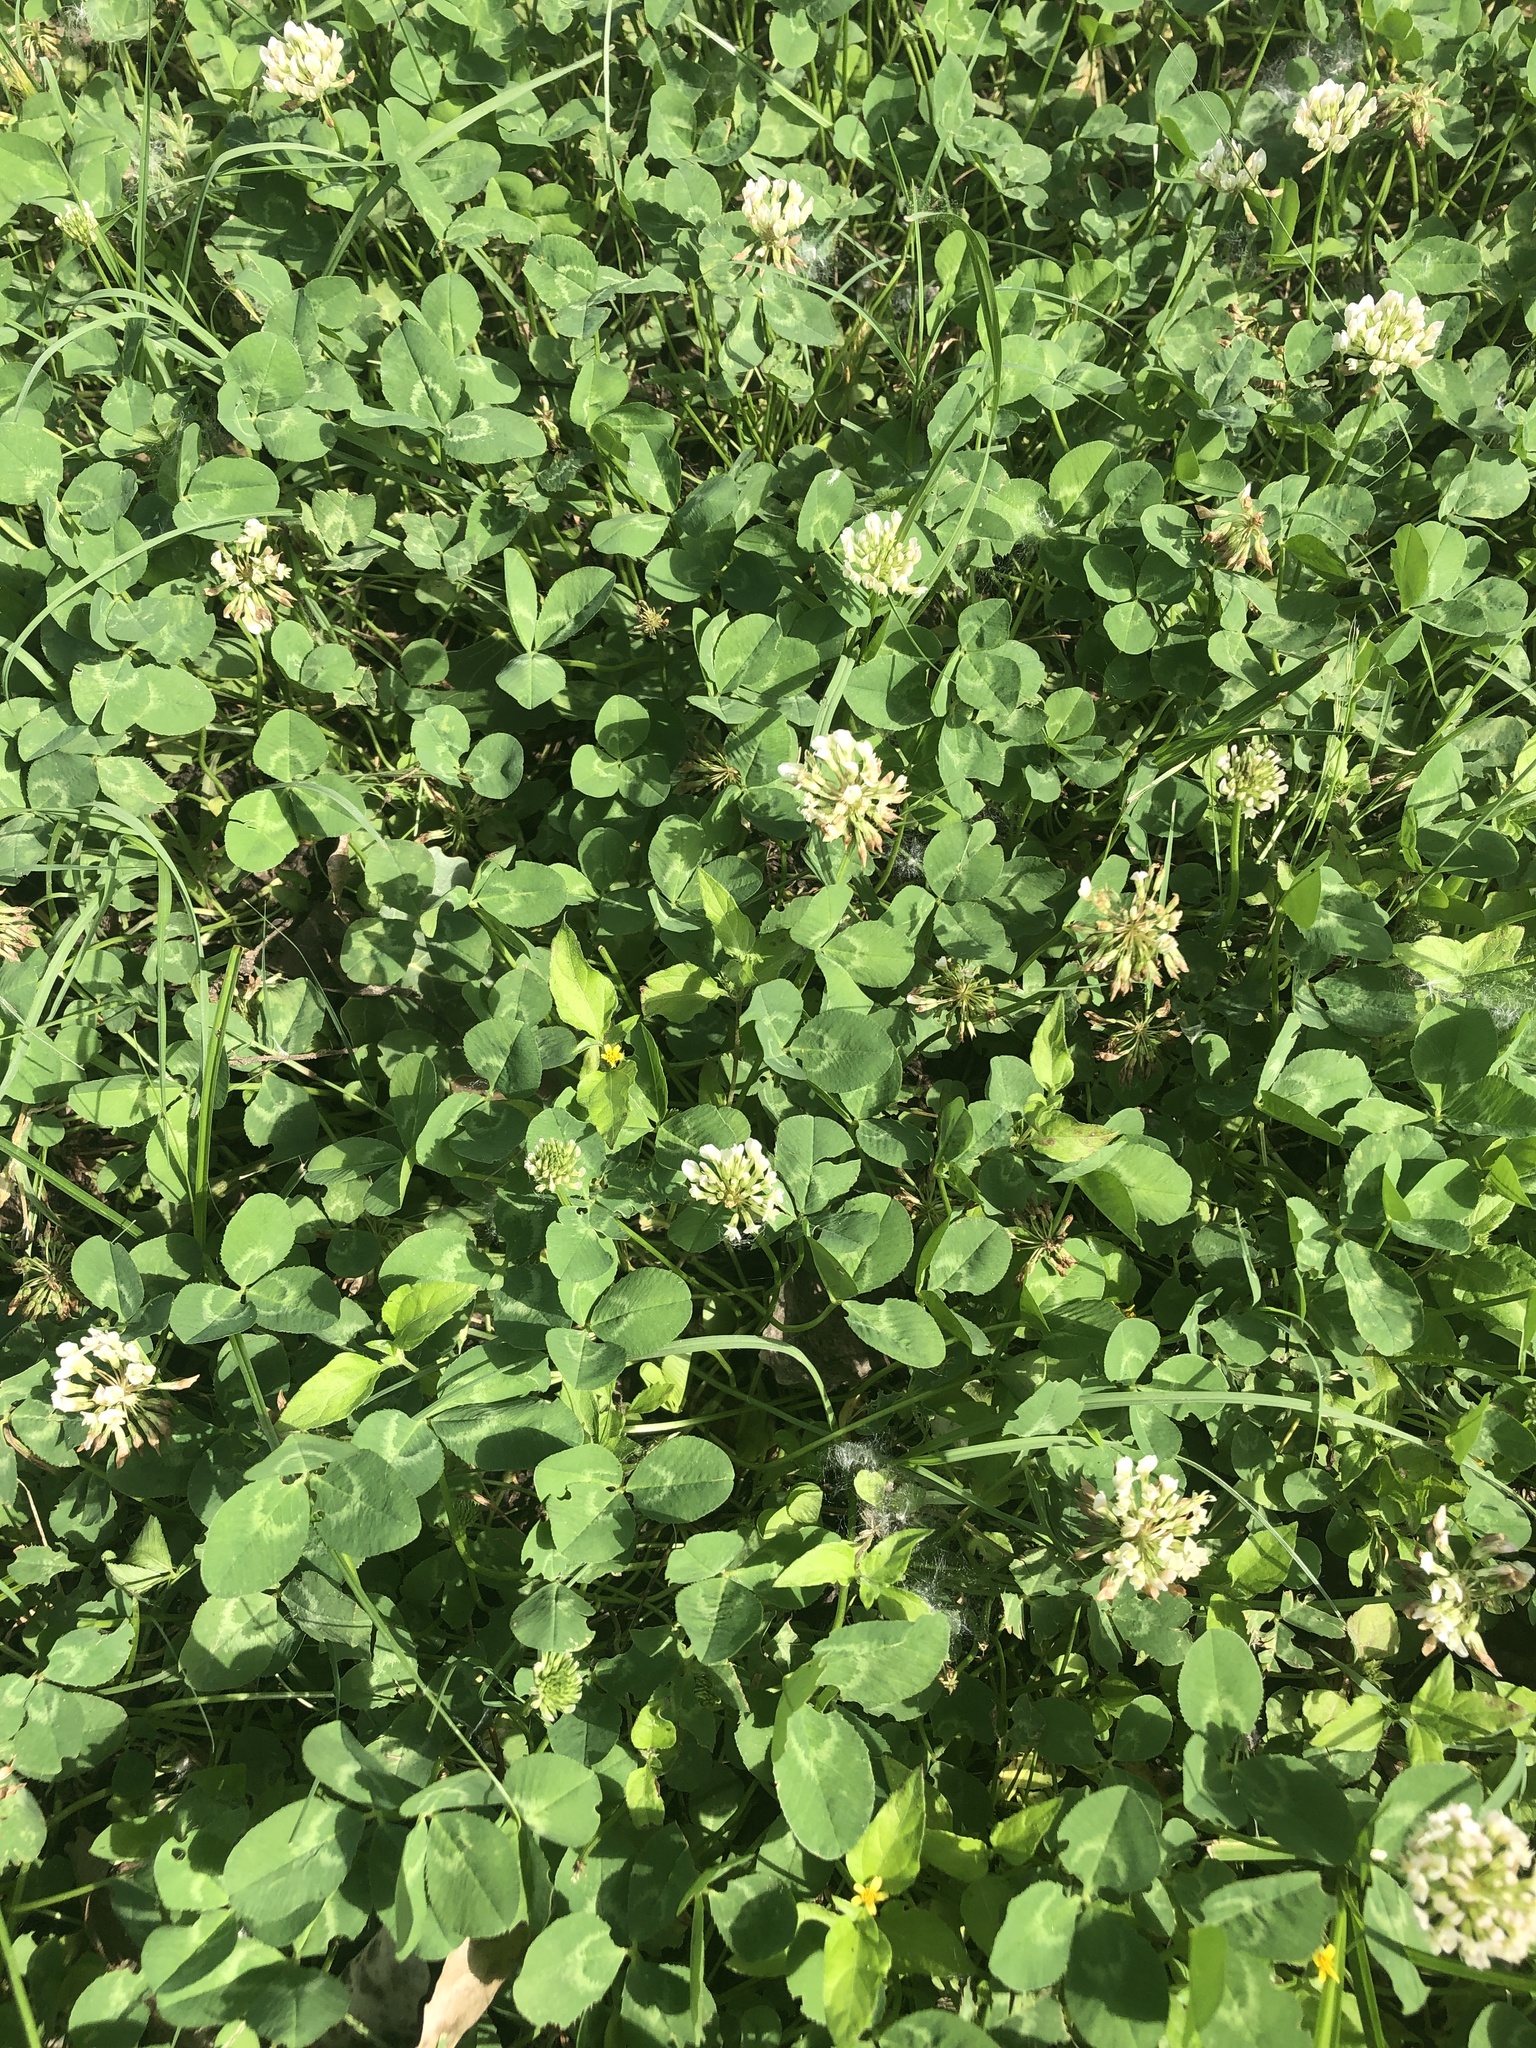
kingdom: Plantae
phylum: Tracheophyta
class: Magnoliopsida
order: Fabales
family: Fabaceae
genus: Trifolium
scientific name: Trifolium repens
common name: White clover
